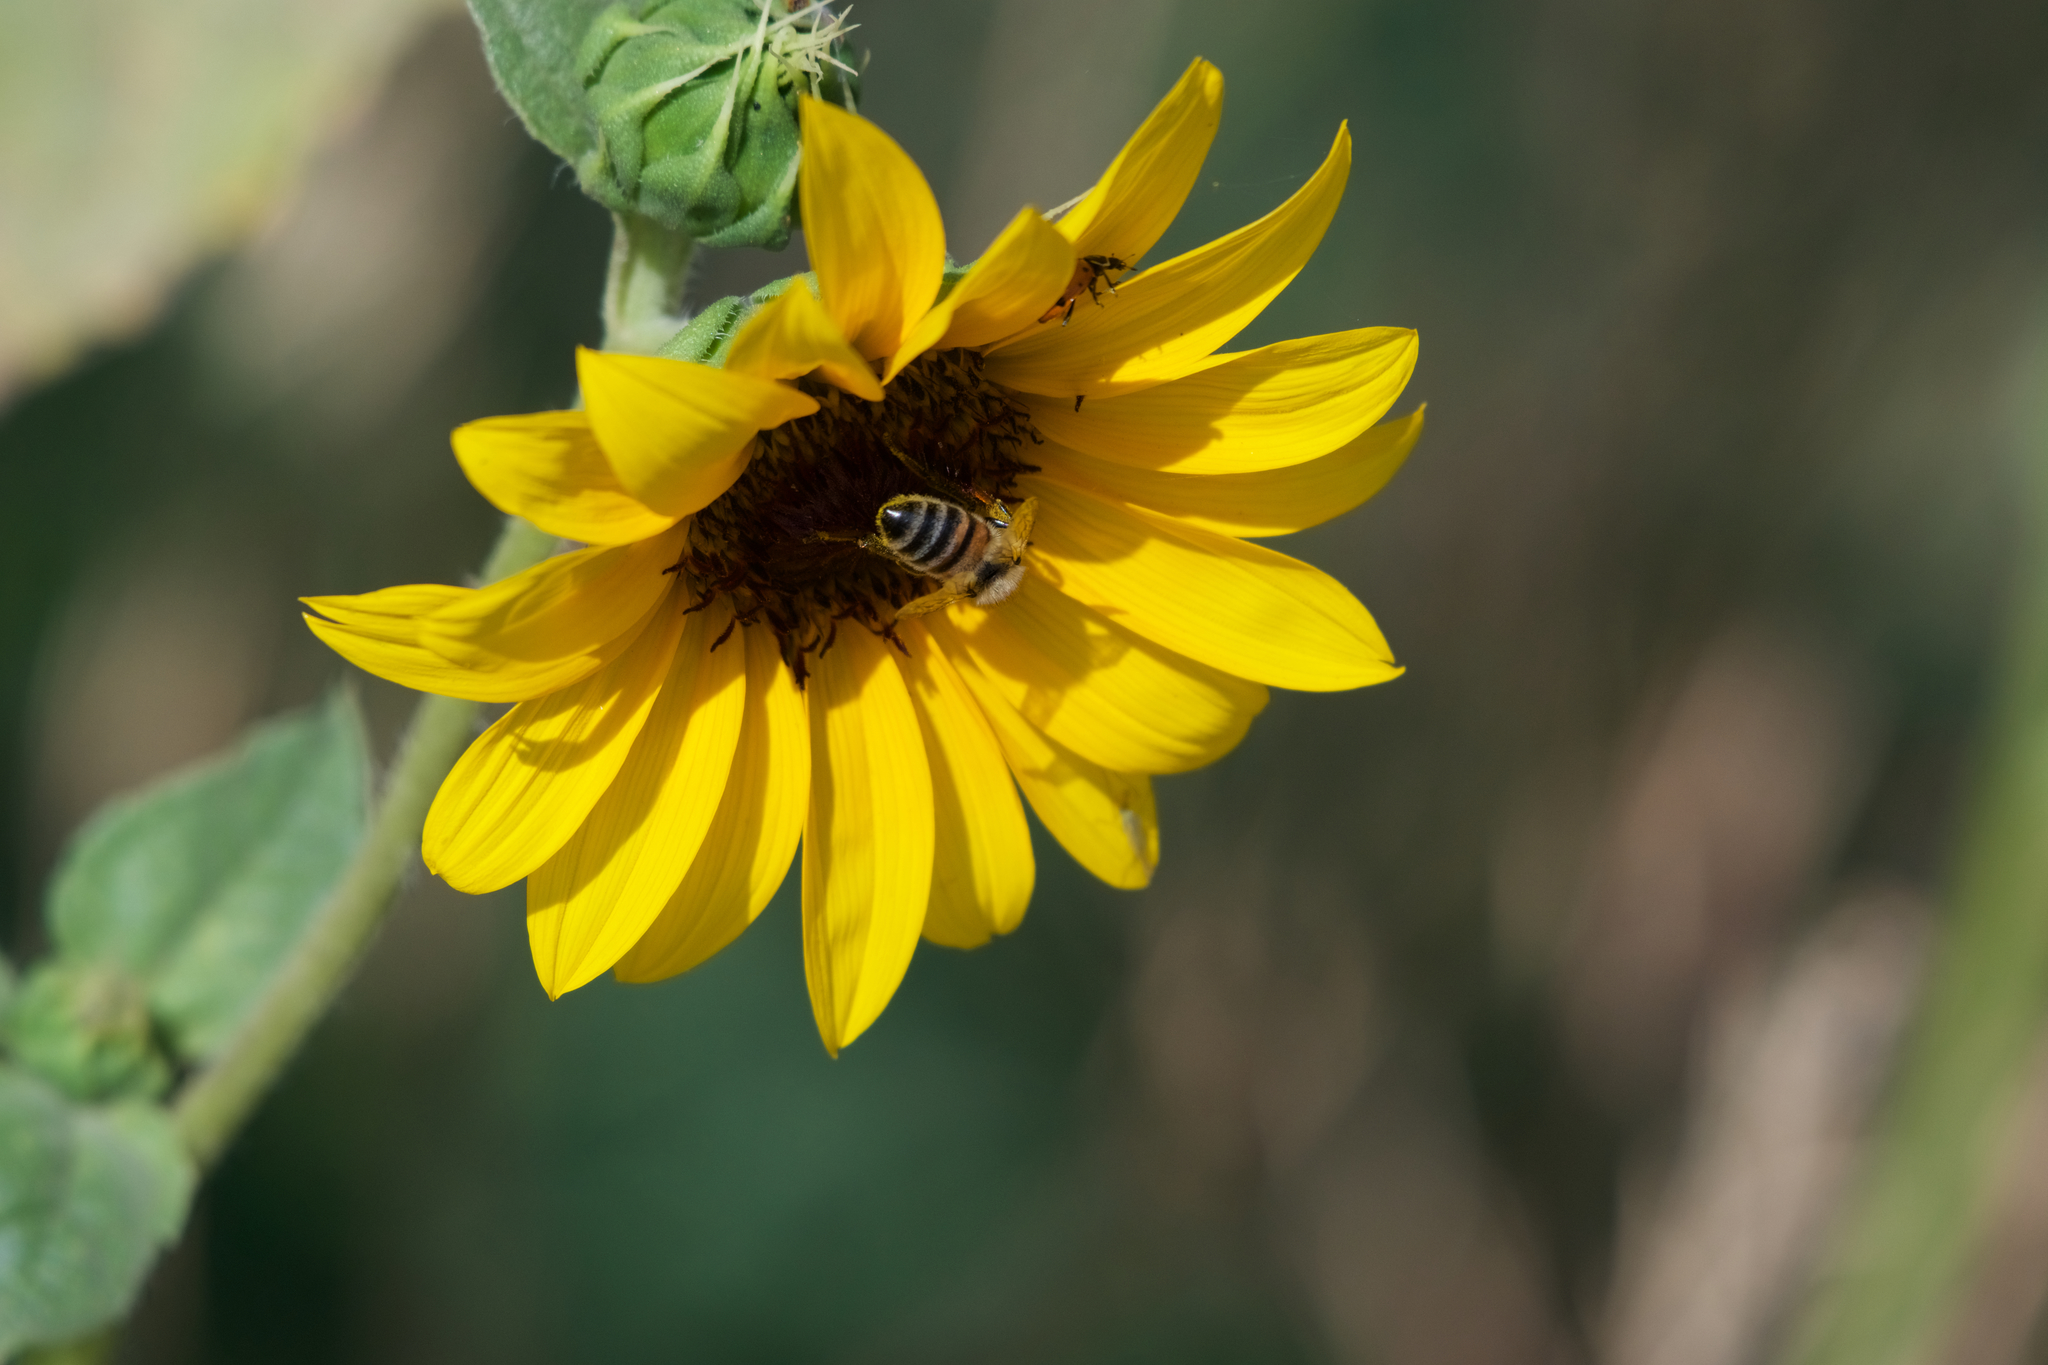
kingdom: Animalia
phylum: Arthropoda
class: Insecta
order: Hymenoptera
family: Apidae
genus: Apis
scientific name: Apis mellifera
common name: Honey bee
